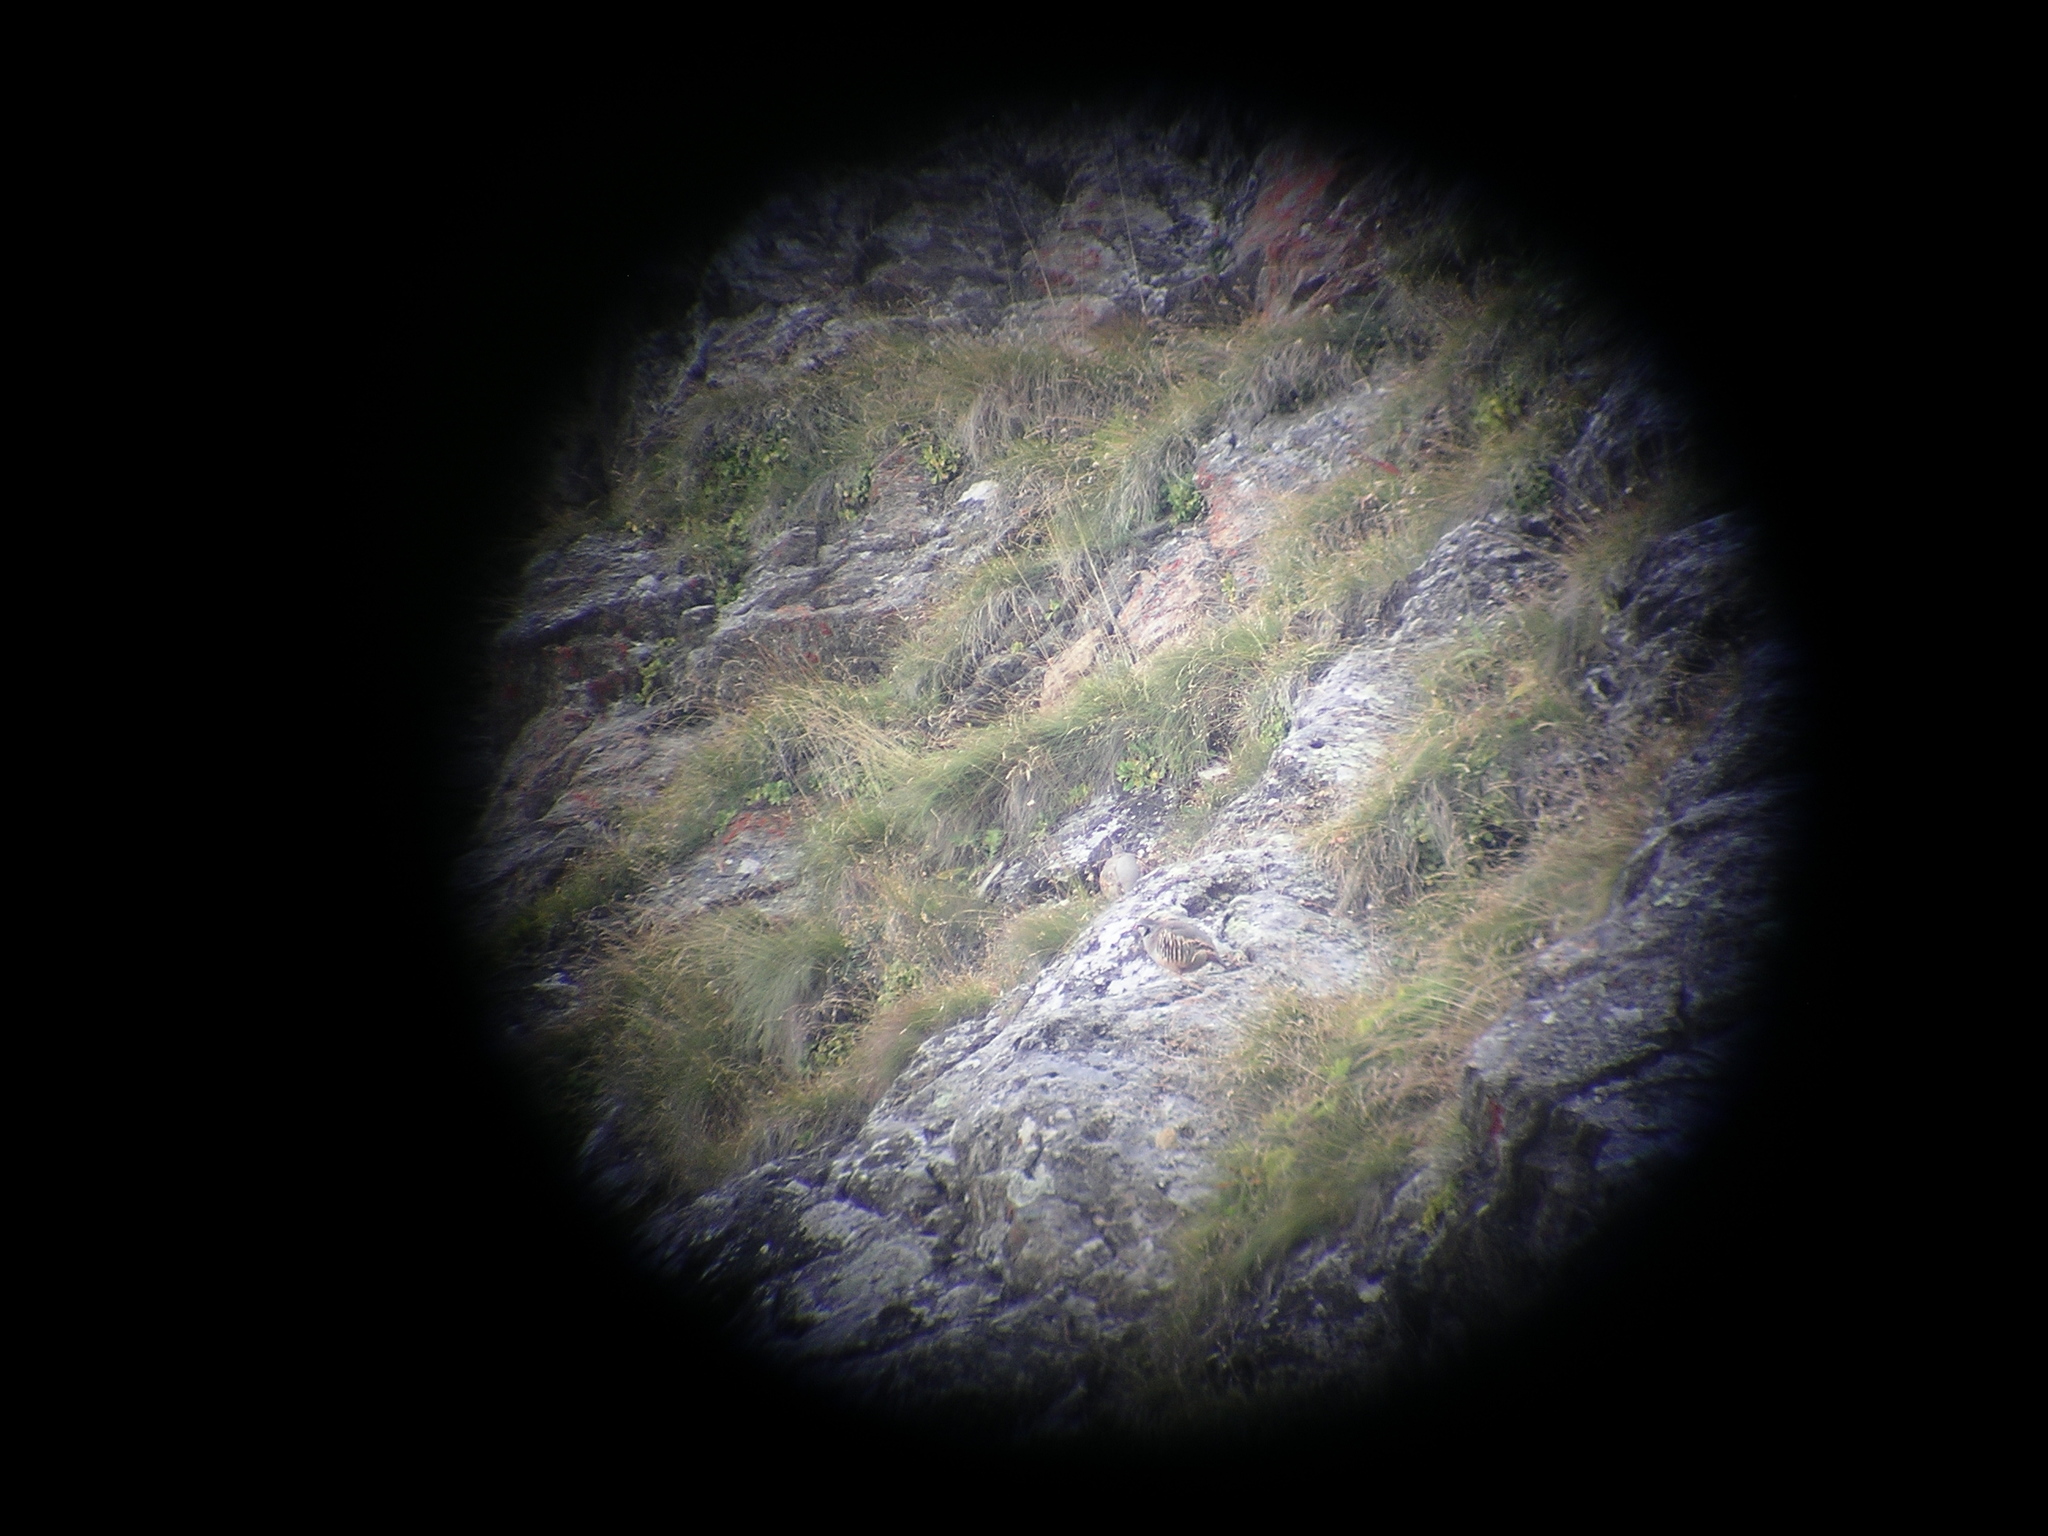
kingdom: Animalia
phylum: Chordata
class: Aves
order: Galliformes
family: Phasianidae
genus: Alectoris
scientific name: Alectoris graeca
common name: Rock partridge
